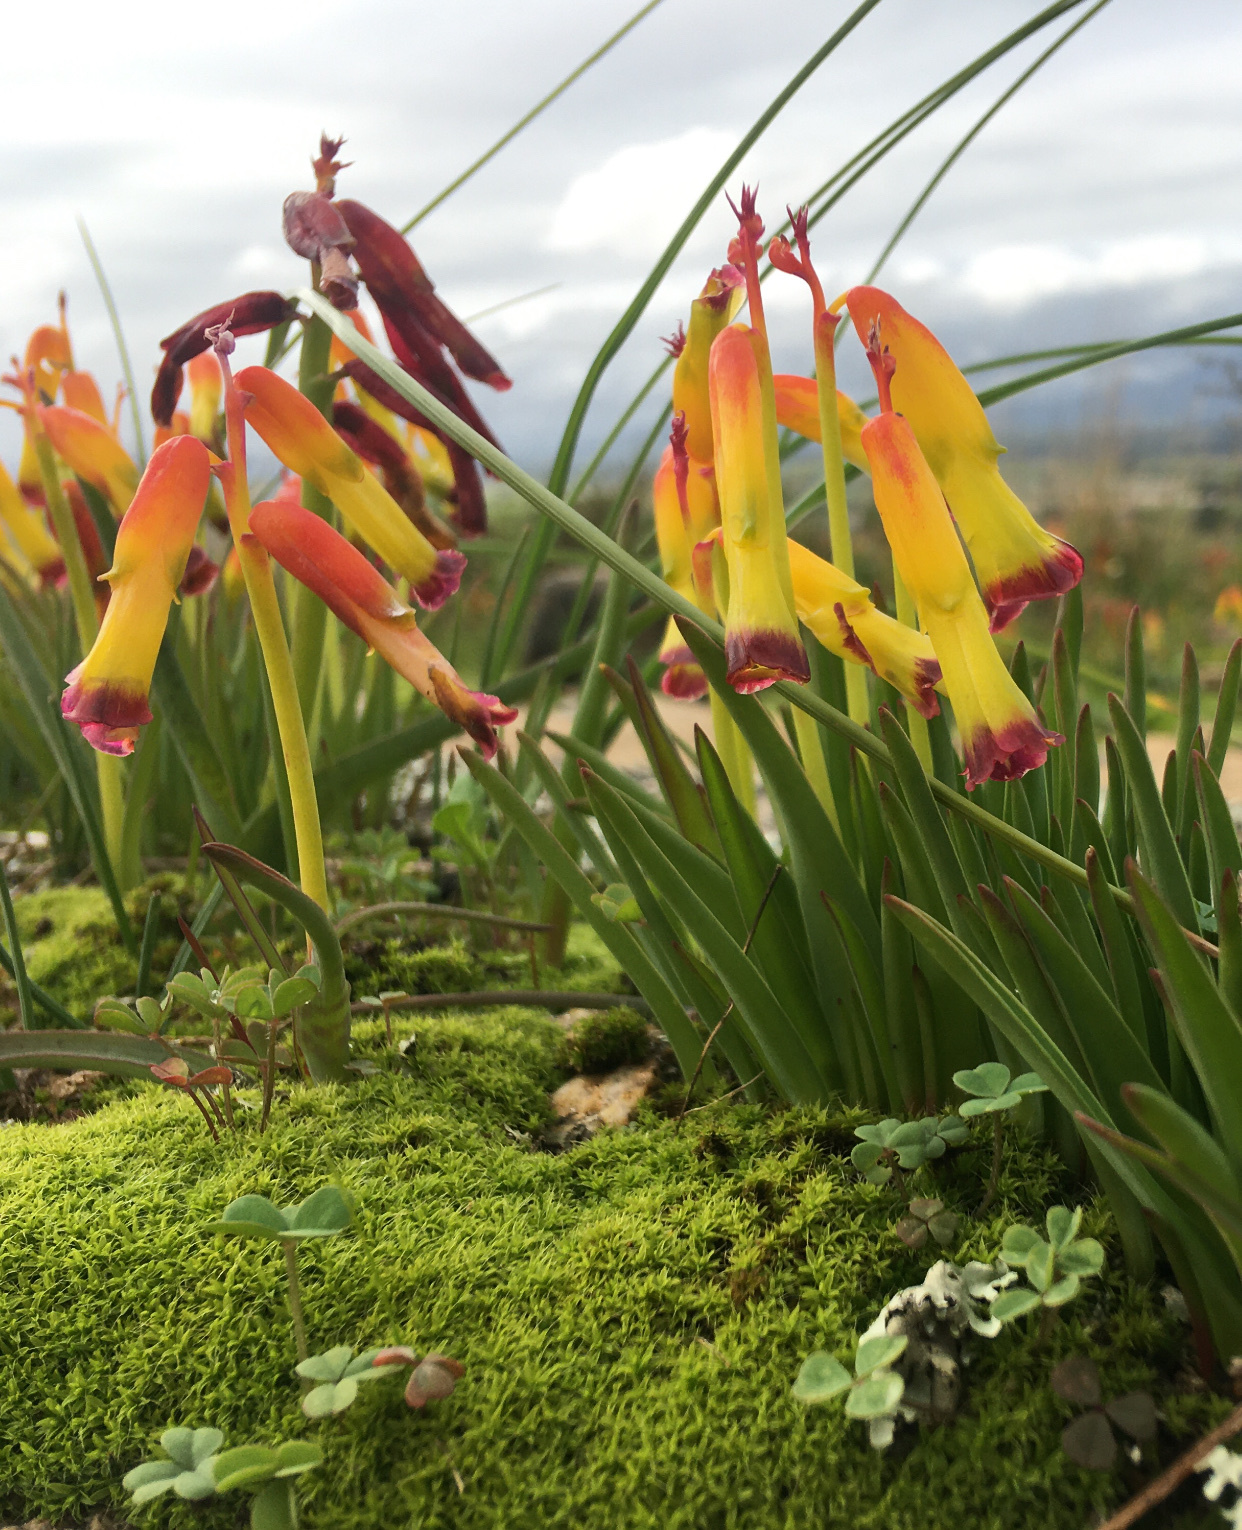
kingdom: Plantae
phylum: Tracheophyta
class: Liliopsida
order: Asparagales
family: Asparagaceae
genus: Lachenalia
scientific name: Lachenalia quadricolor
